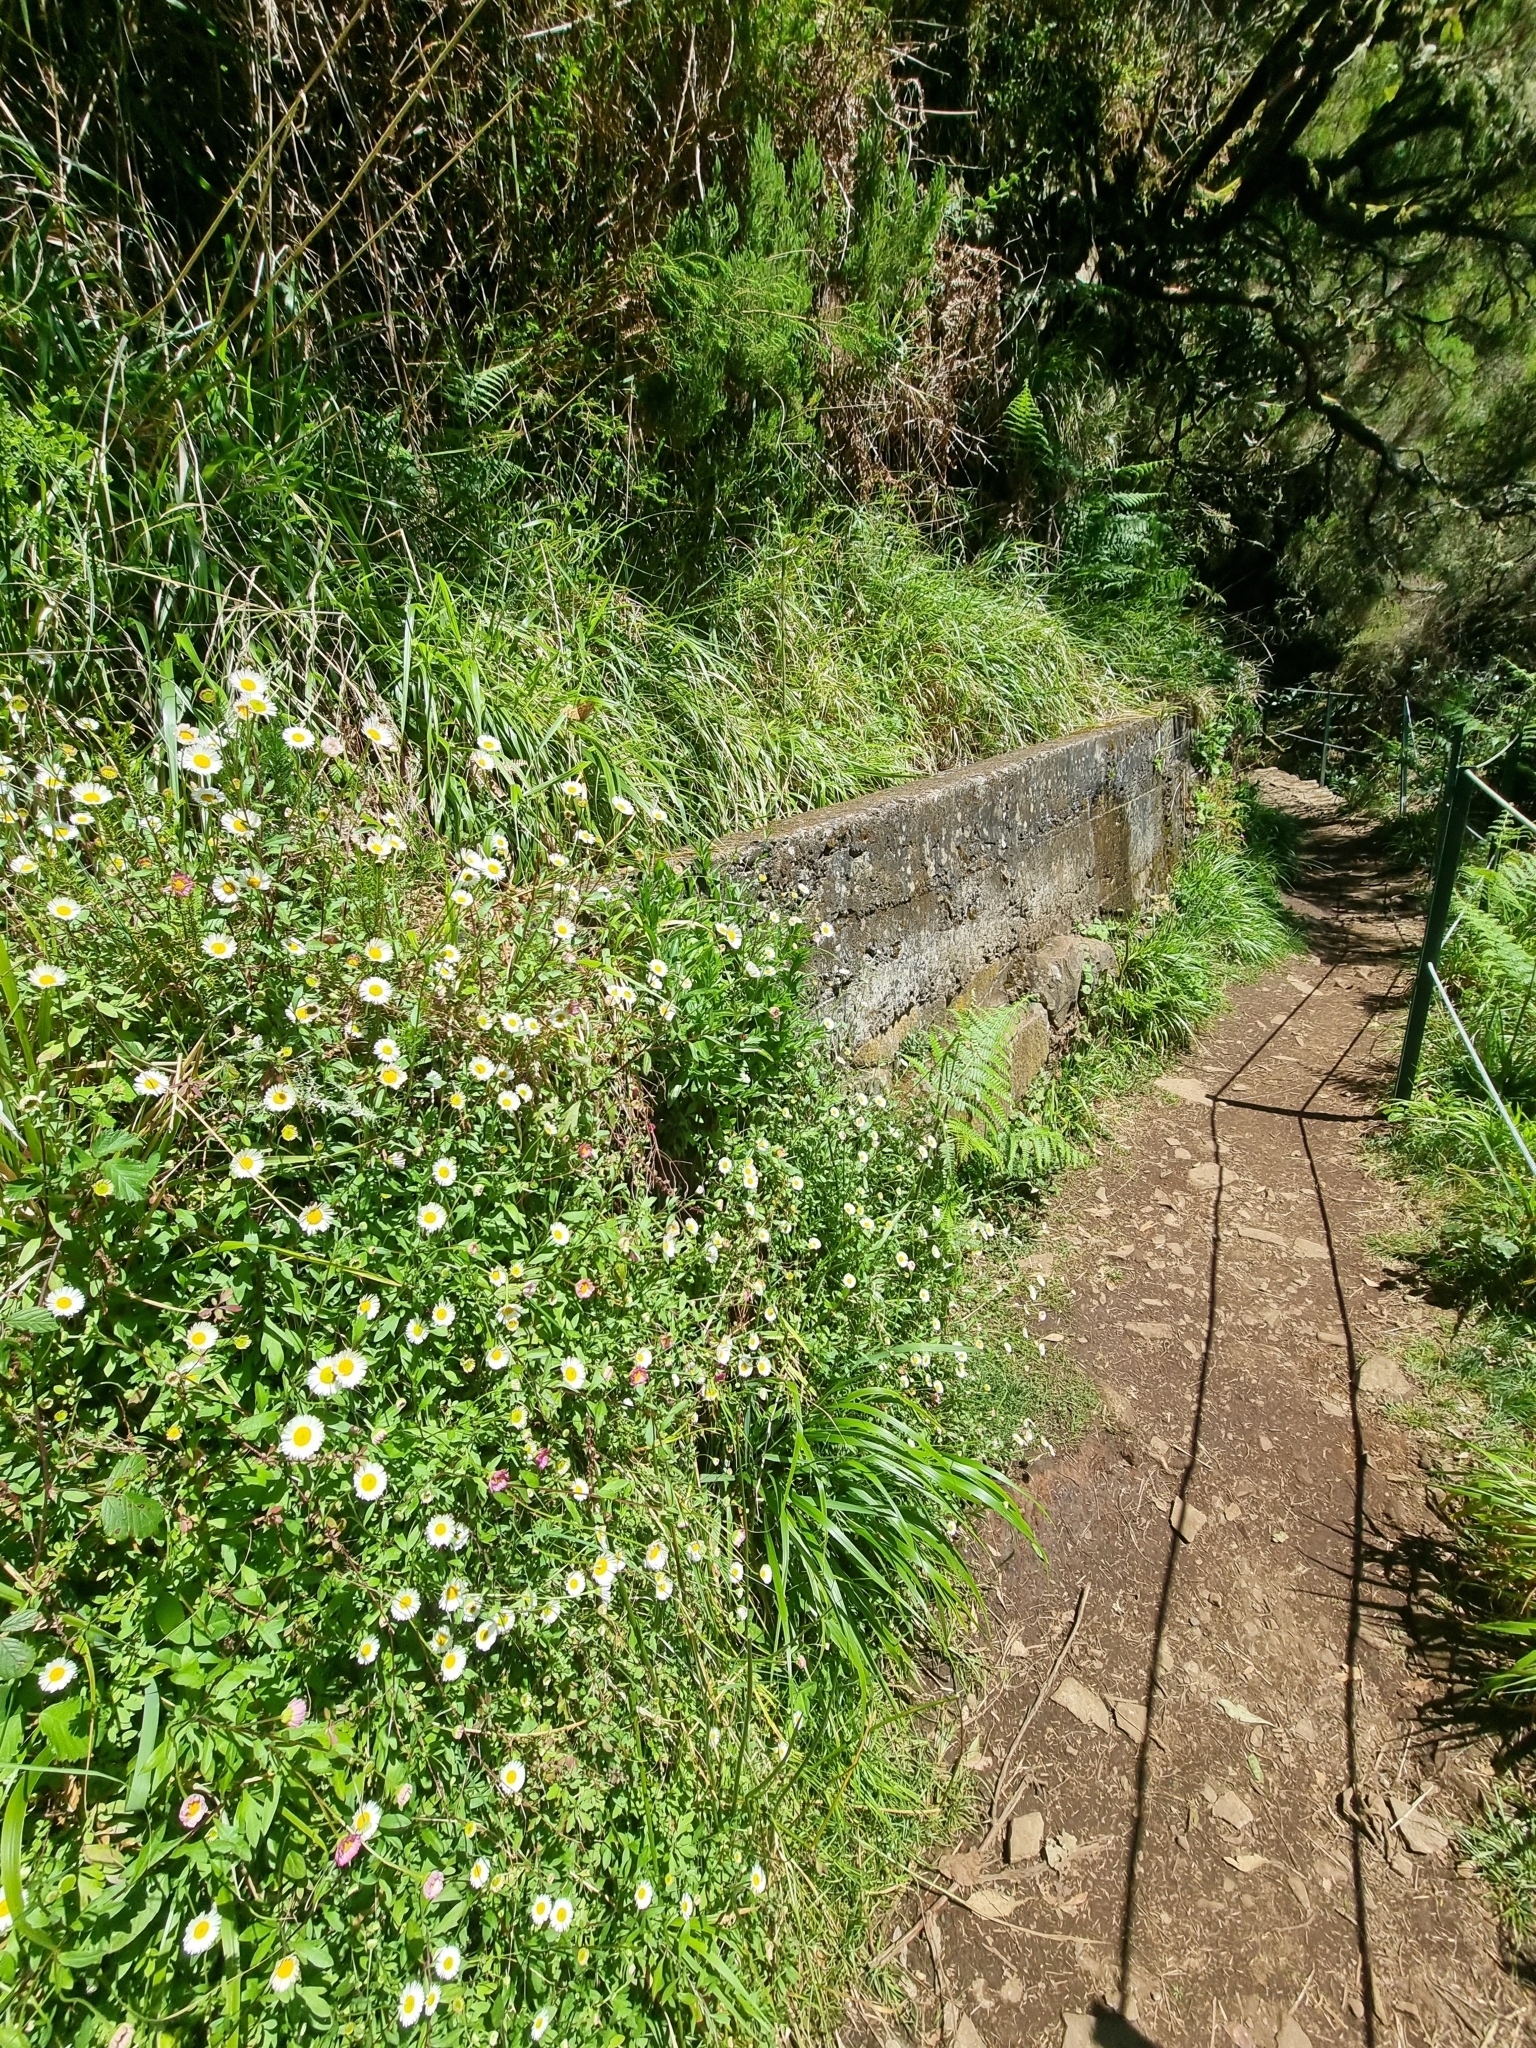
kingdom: Plantae
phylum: Tracheophyta
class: Magnoliopsida
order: Asterales
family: Asteraceae
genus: Erigeron
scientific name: Erigeron karvinskianus
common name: Mexican fleabane
